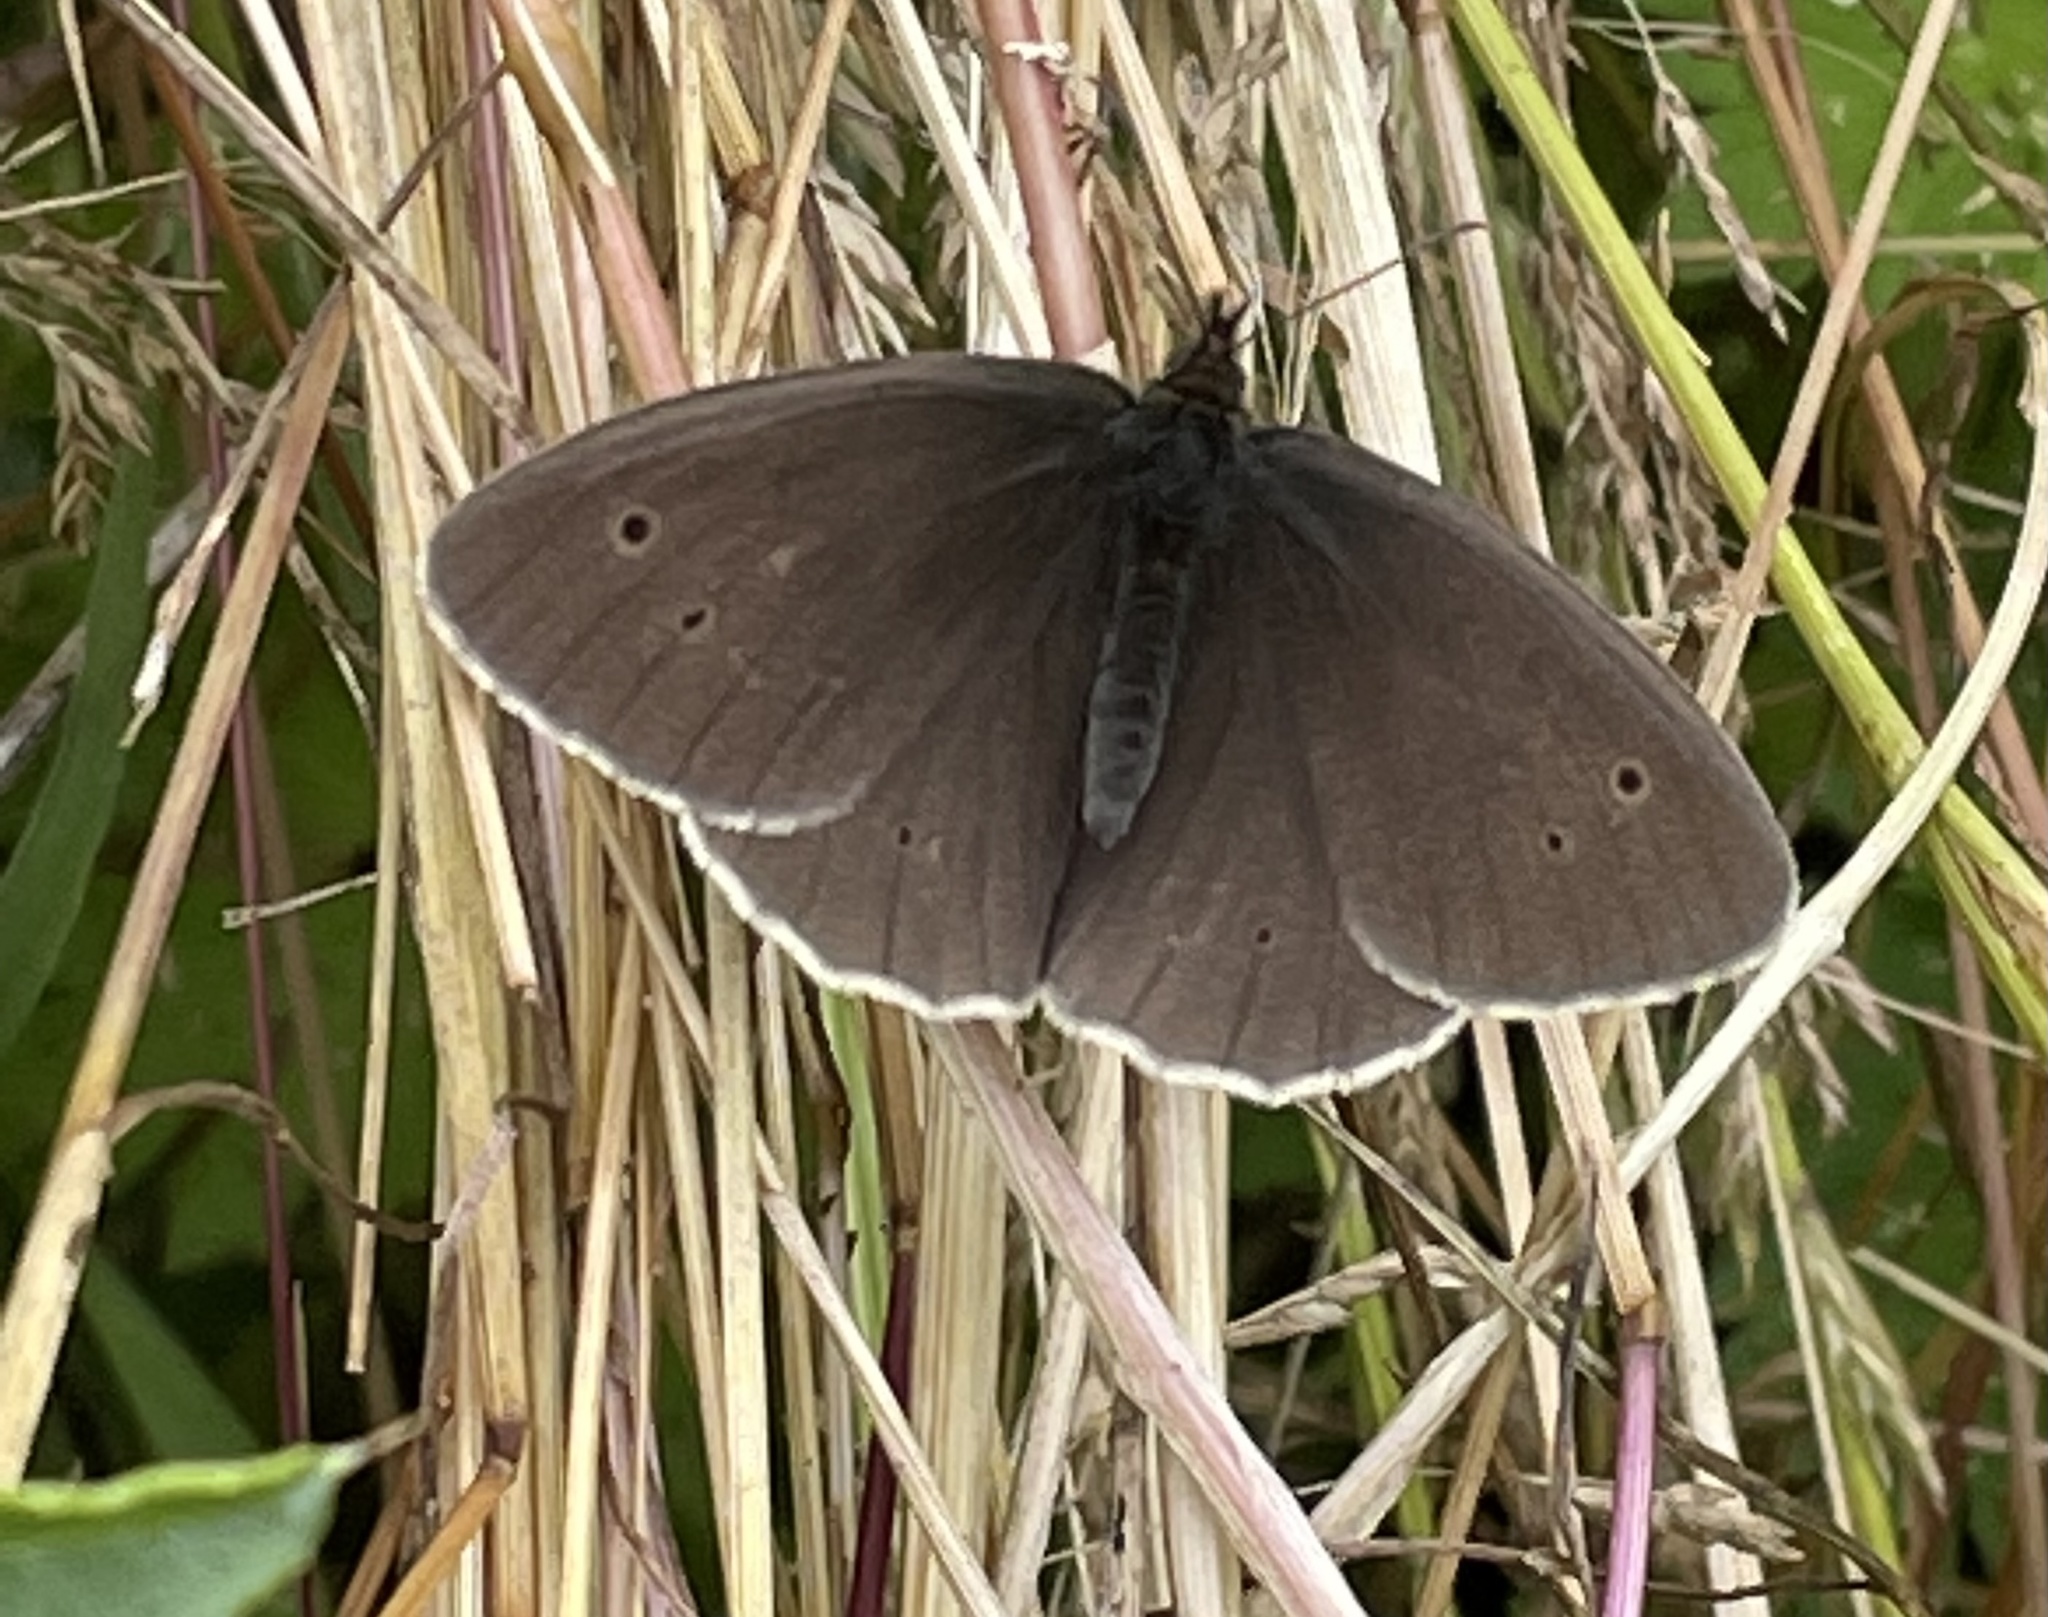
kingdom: Animalia
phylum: Arthropoda
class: Insecta
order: Lepidoptera
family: Nymphalidae
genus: Aphantopus
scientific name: Aphantopus hyperantus
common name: Ringlet
